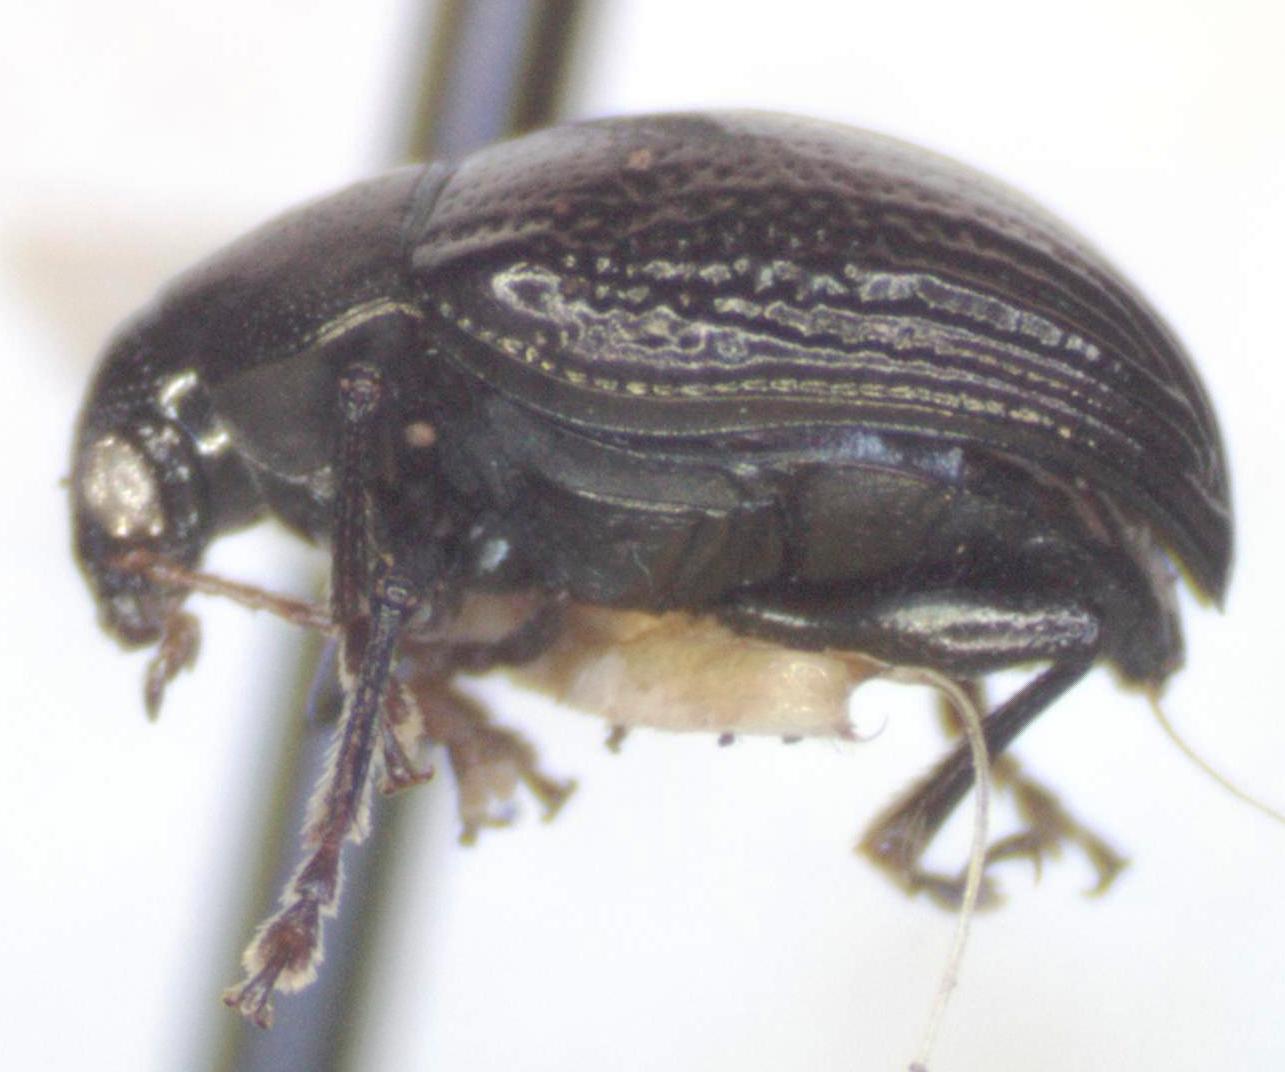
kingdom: Animalia
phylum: Arthropoda
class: Insecta
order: Coleoptera
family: Chrysomelidae
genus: Brachypnoea
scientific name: Brachypnoea
